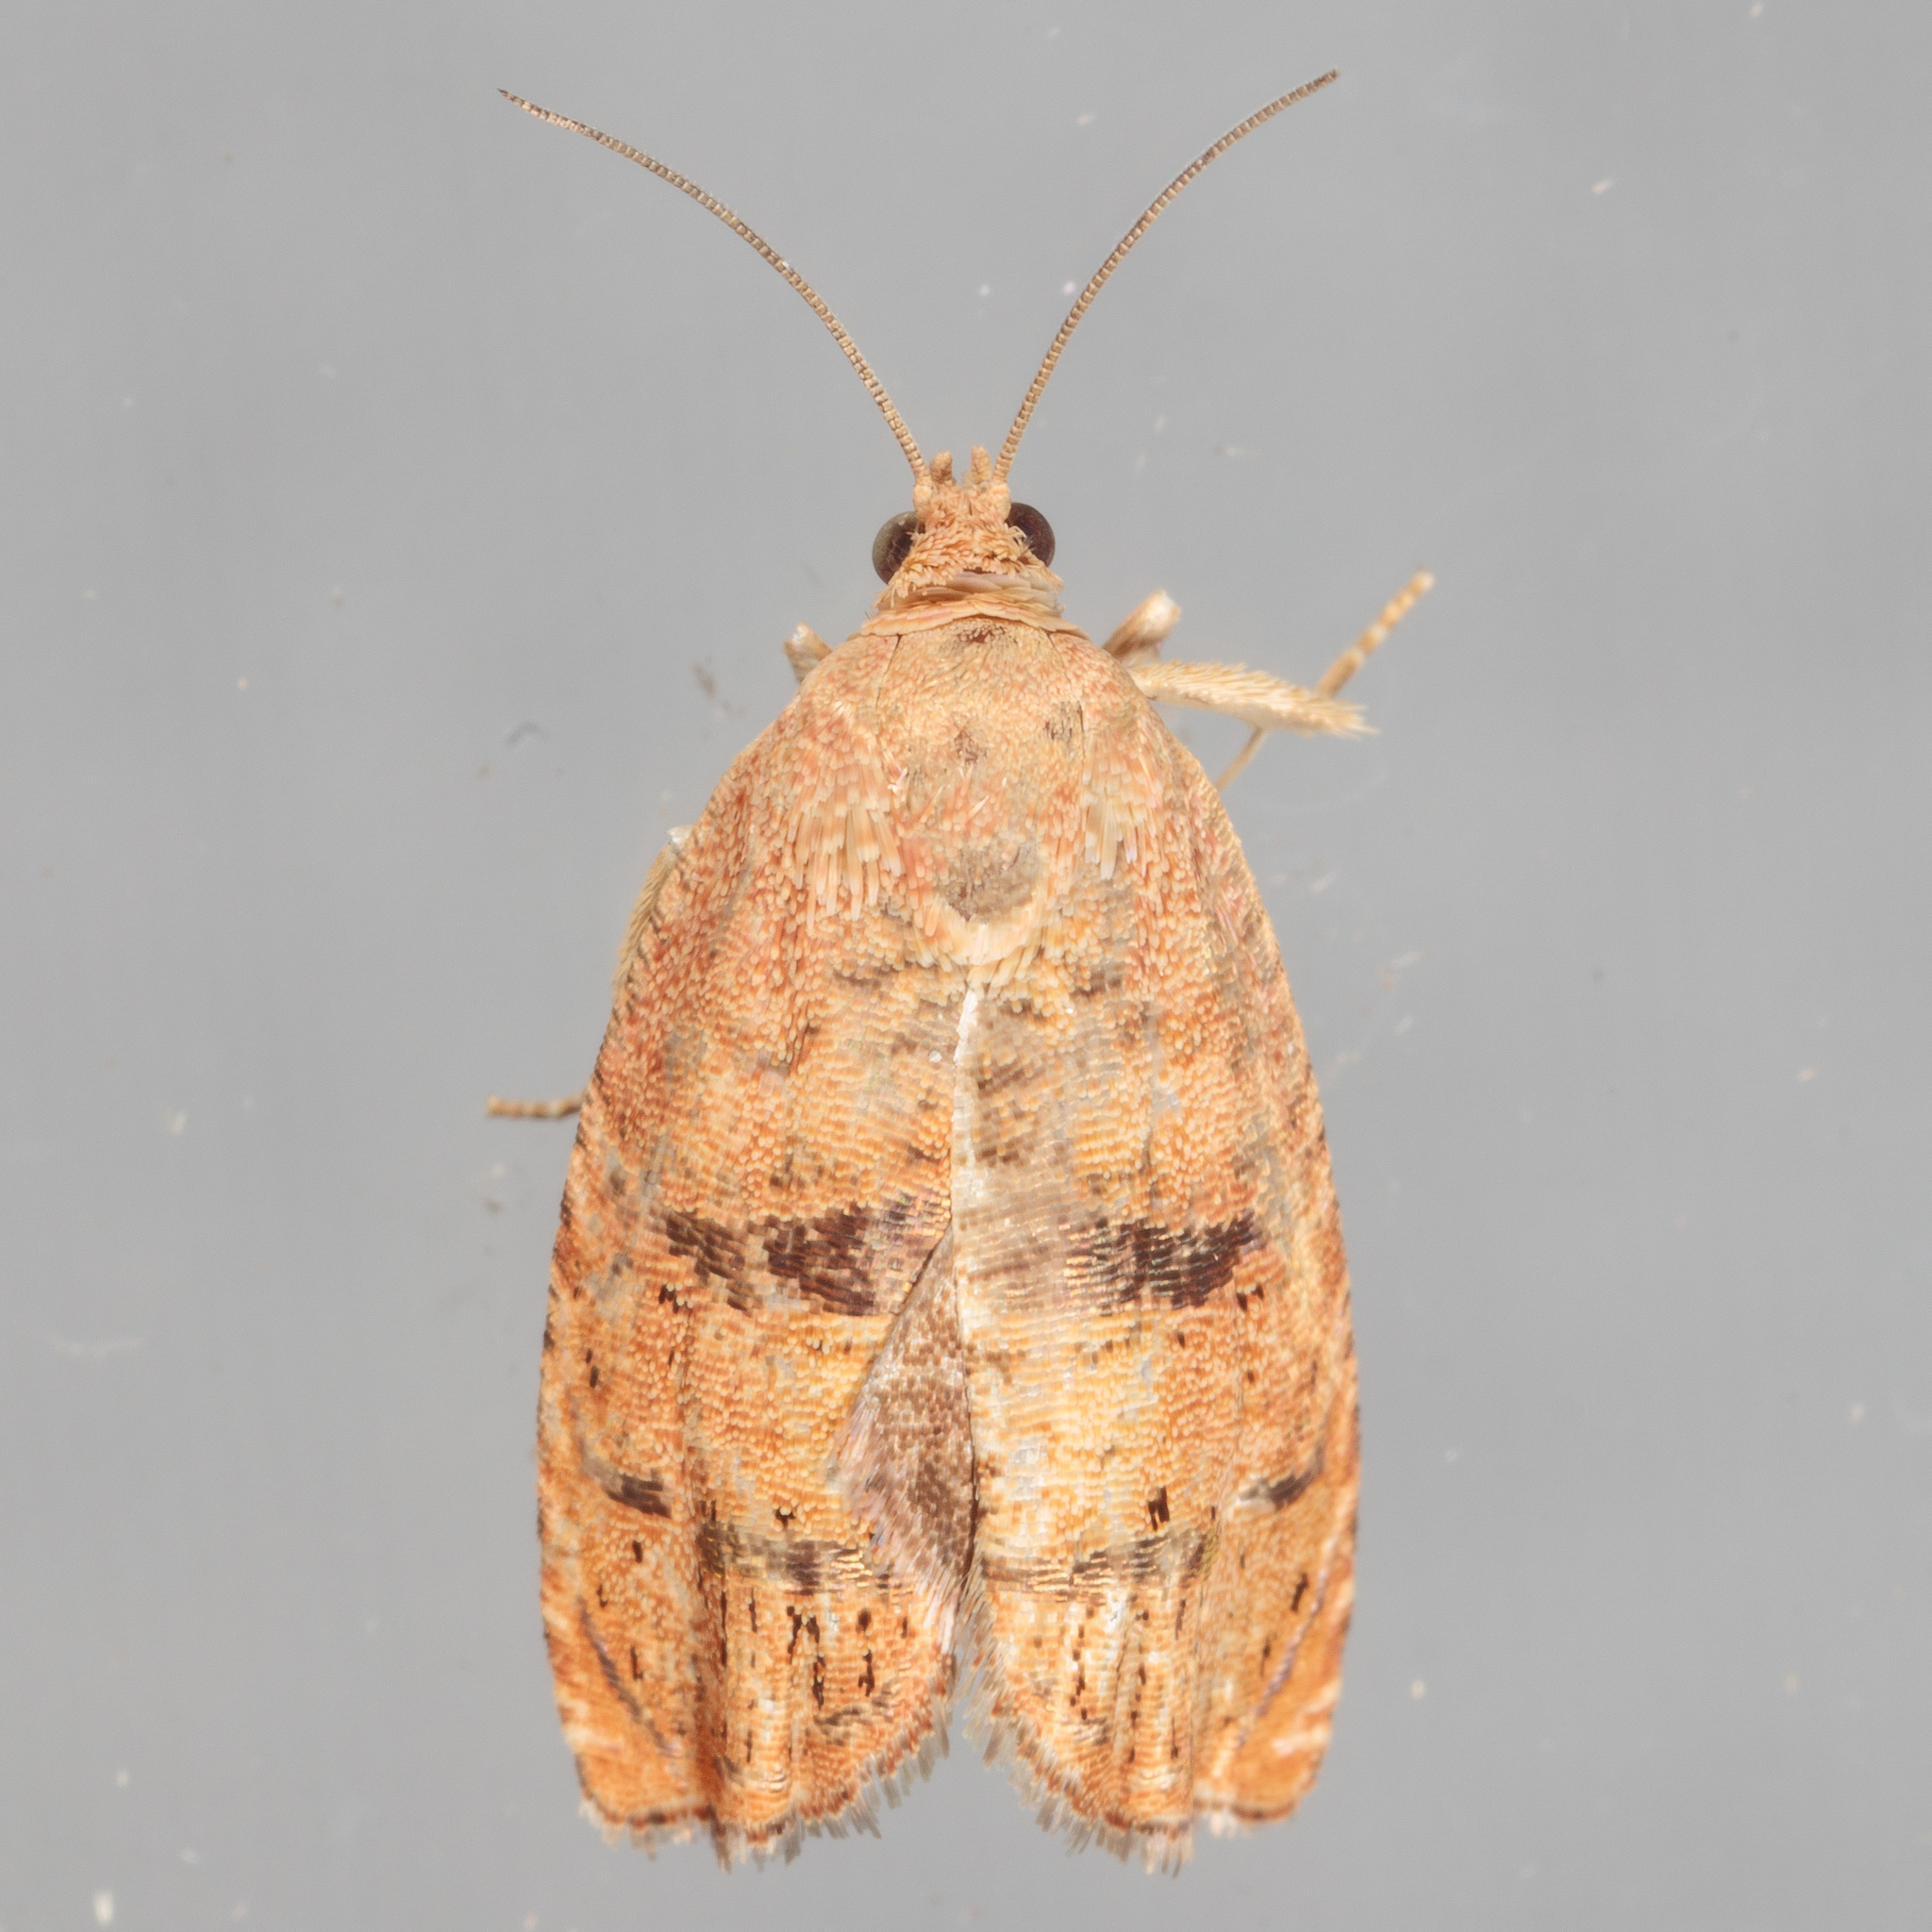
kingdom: Animalia
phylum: Arthropoda
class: Insecta
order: Lepidoptera
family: Tortricidae
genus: Cydia
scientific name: Cydia latiferreana
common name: Filbertworm moth
